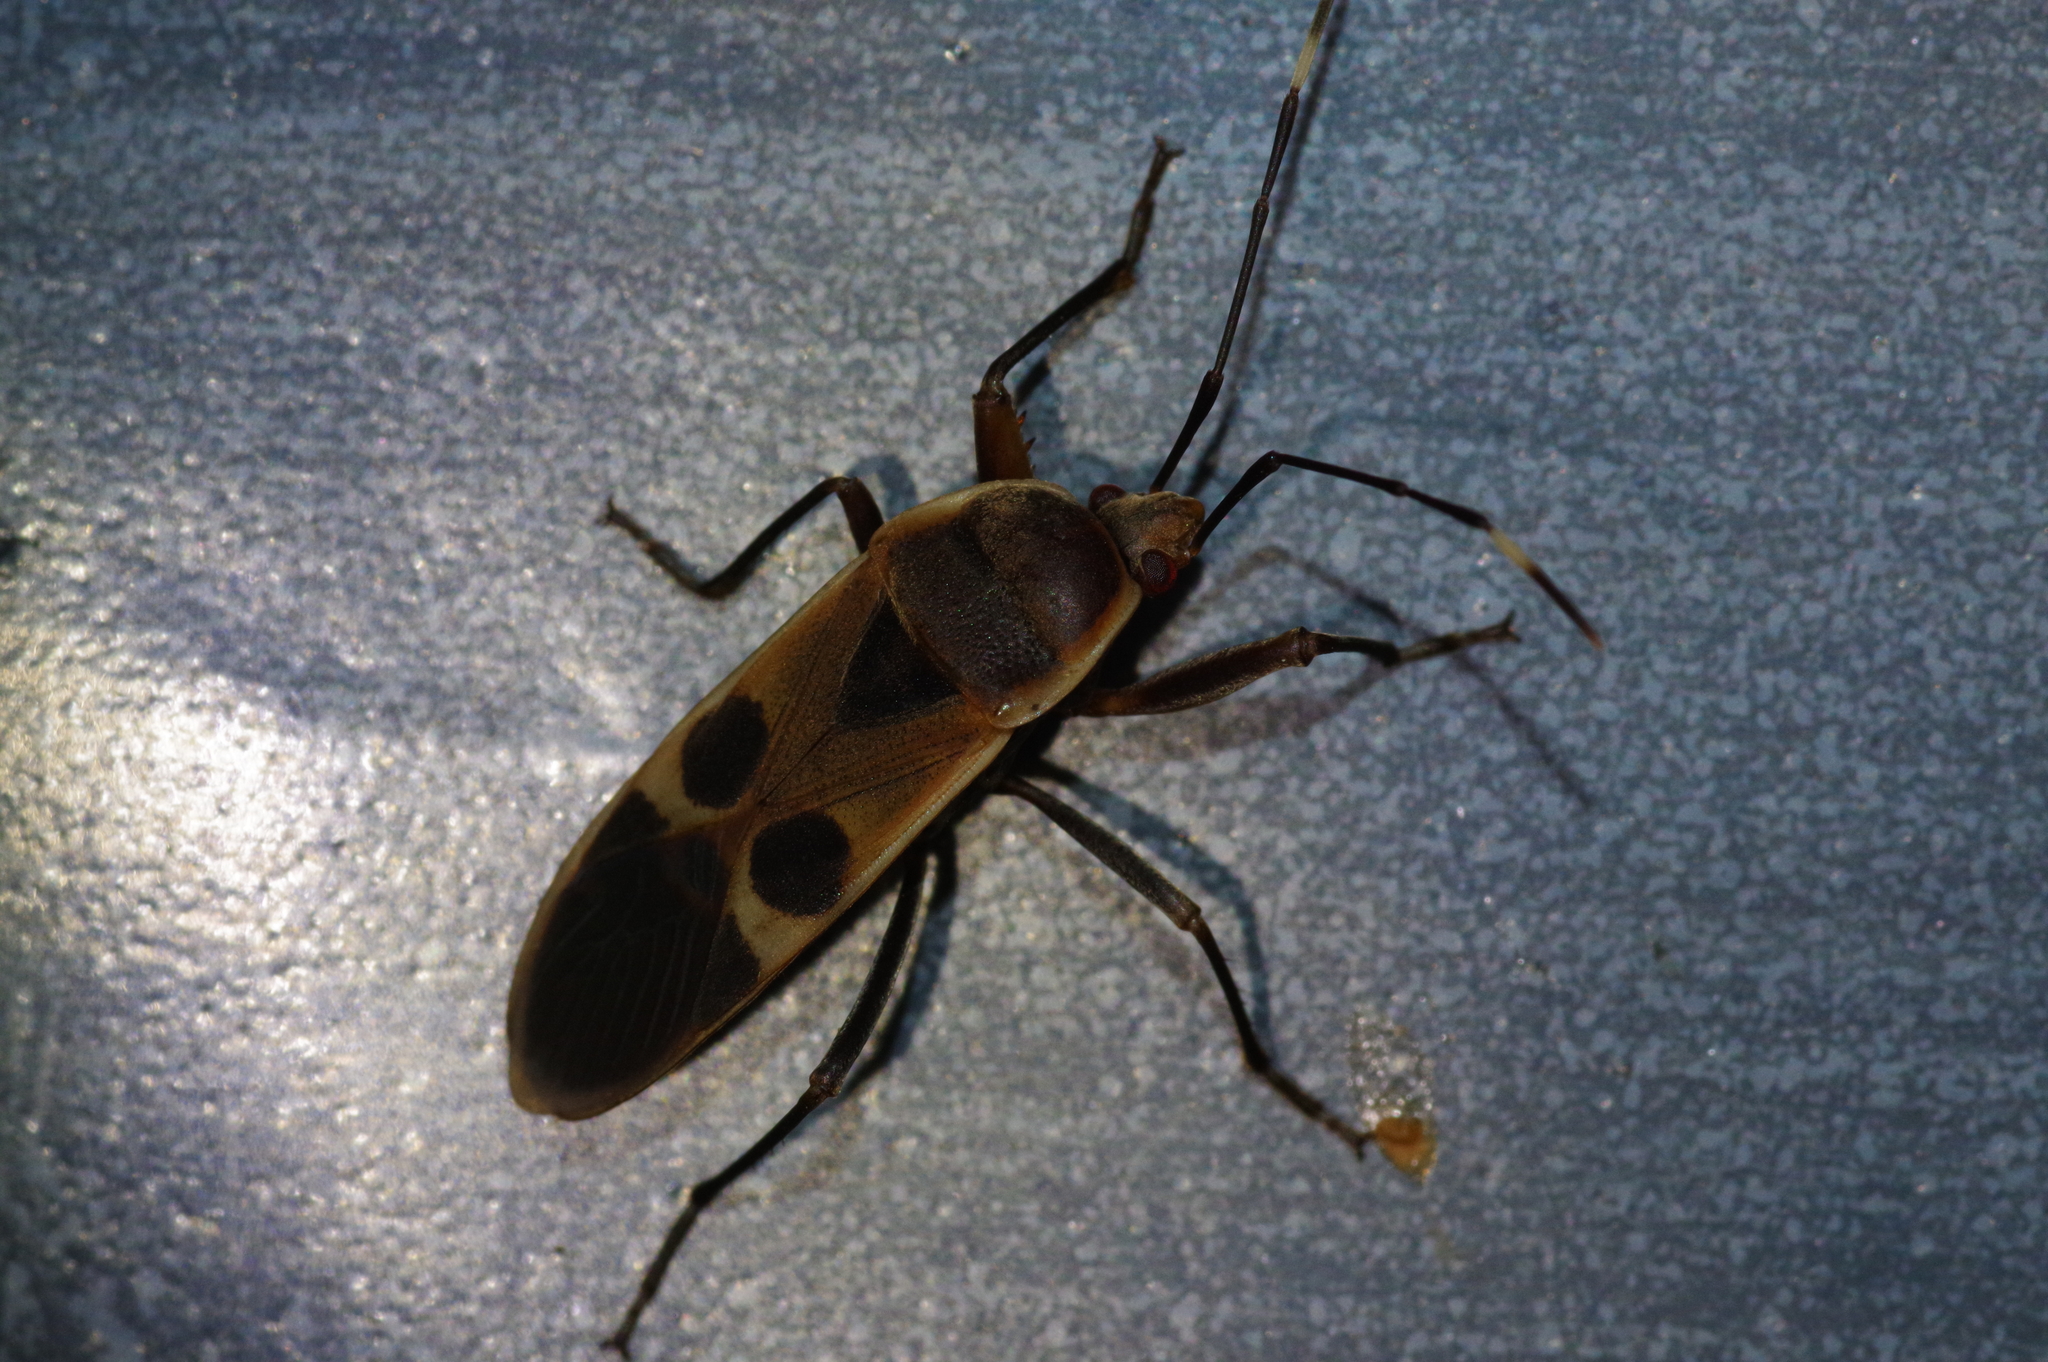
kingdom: Animalia
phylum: Arthropoda
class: Insecta
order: Hemiptera
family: Largidae
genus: Physopelta
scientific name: Physopelta gutta
